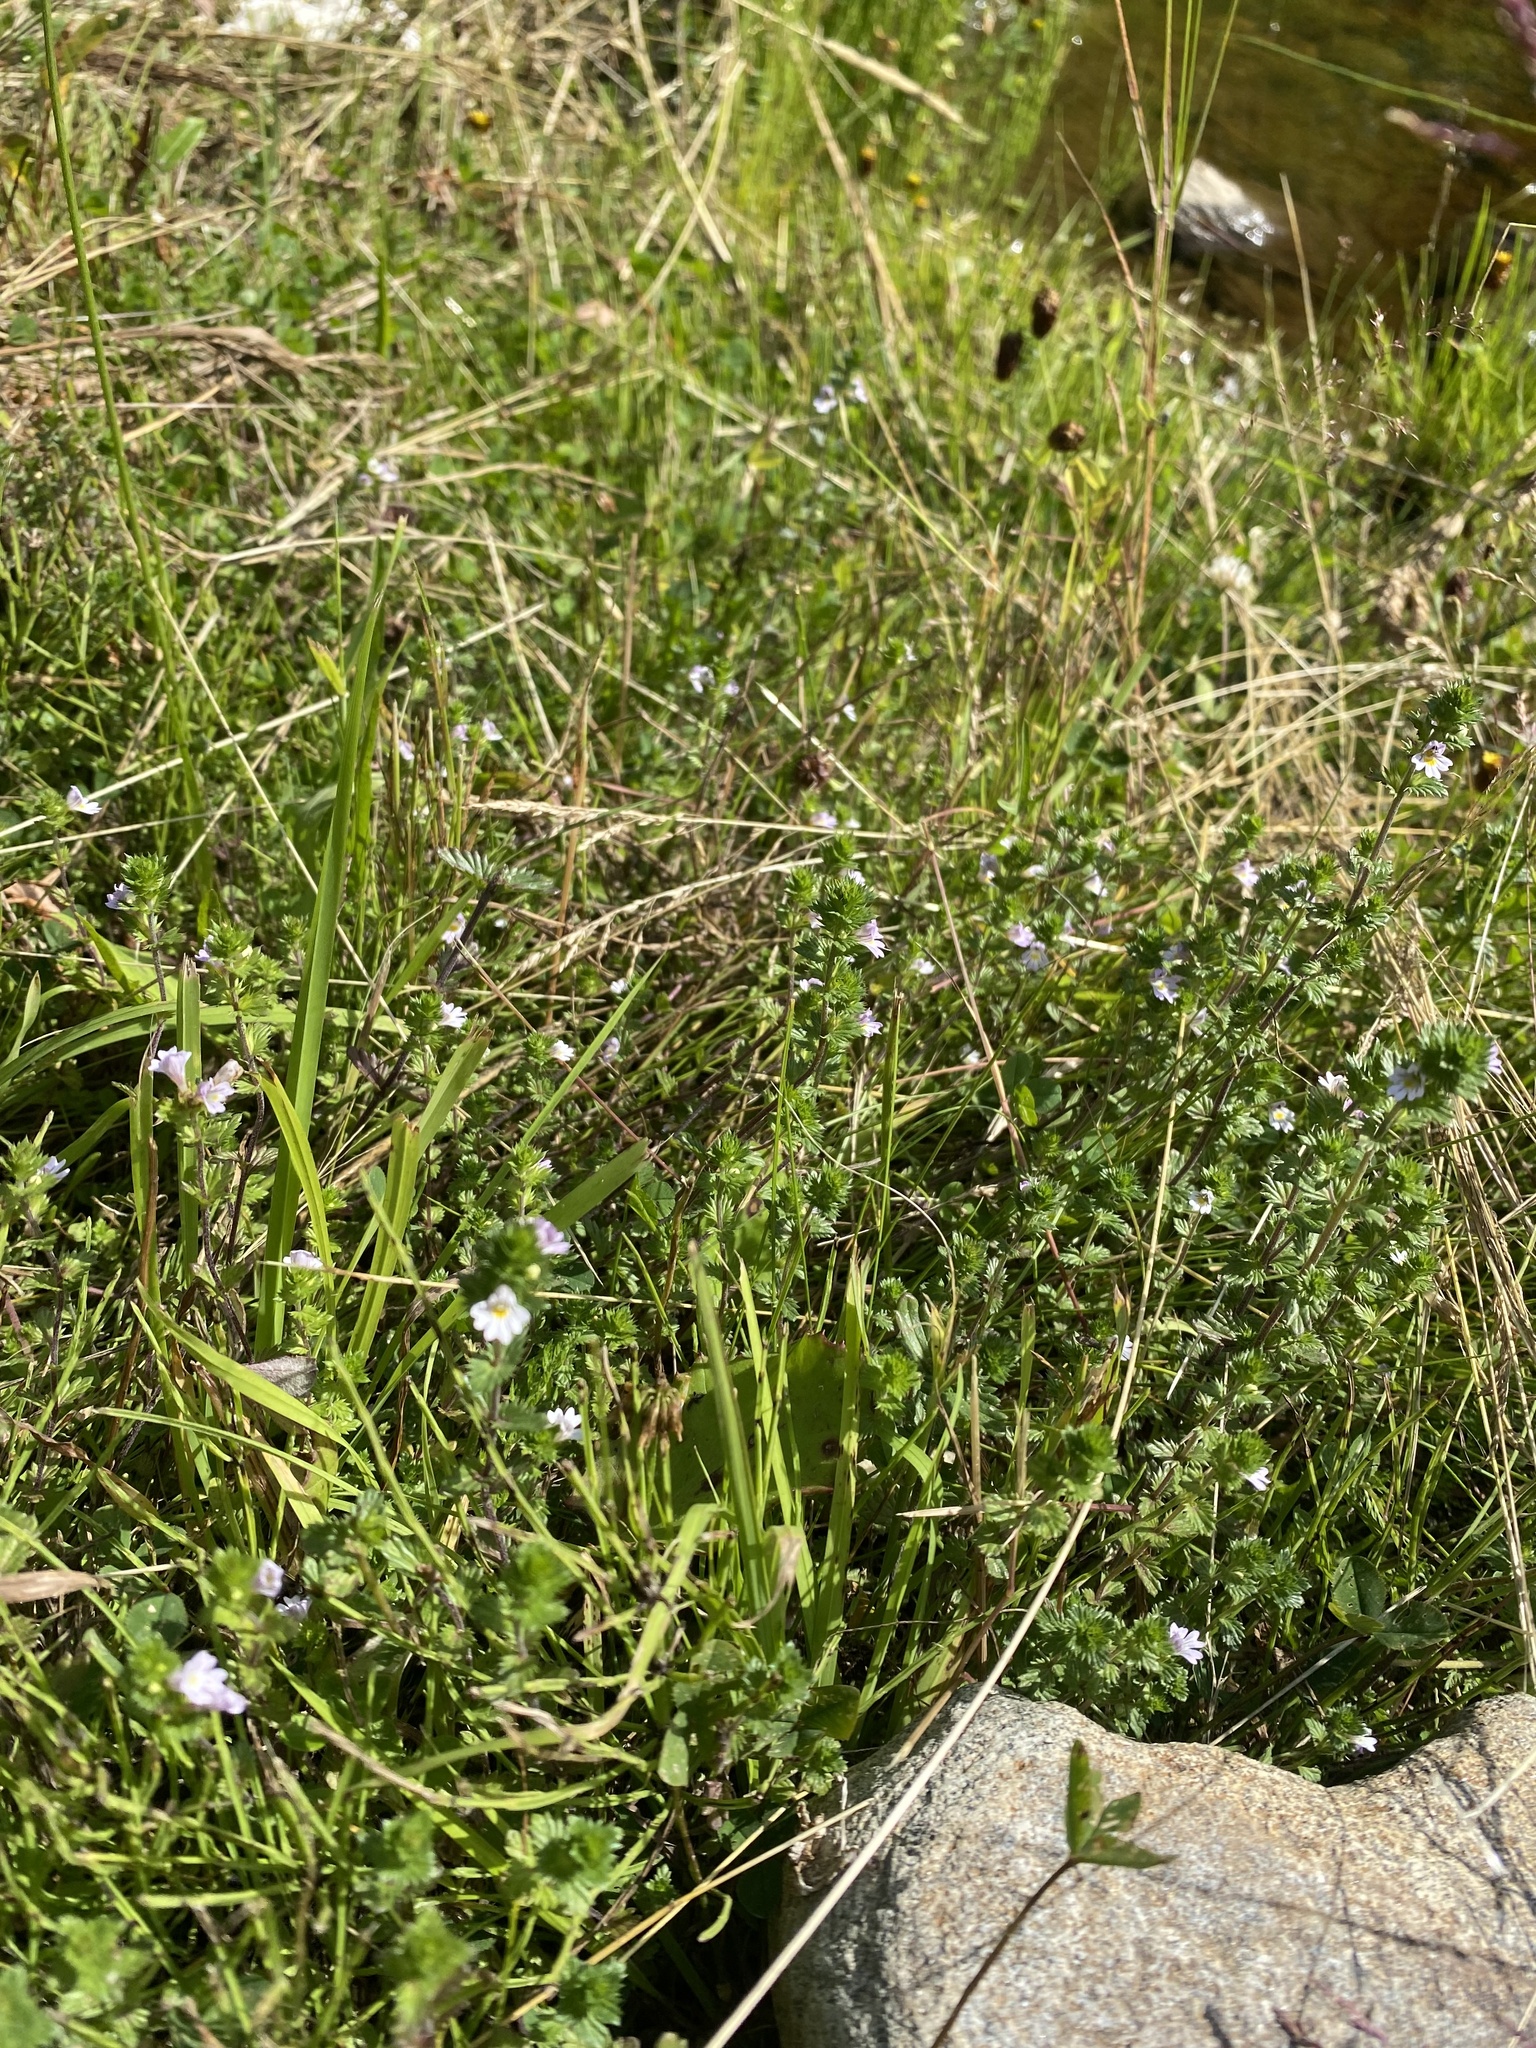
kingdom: Plantae
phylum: Tracheophyta
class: Magnoliopsida
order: Lamiales
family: Orobanchaceae
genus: Euphrasia
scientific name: Euphrasia stricta
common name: Drug eyebright
